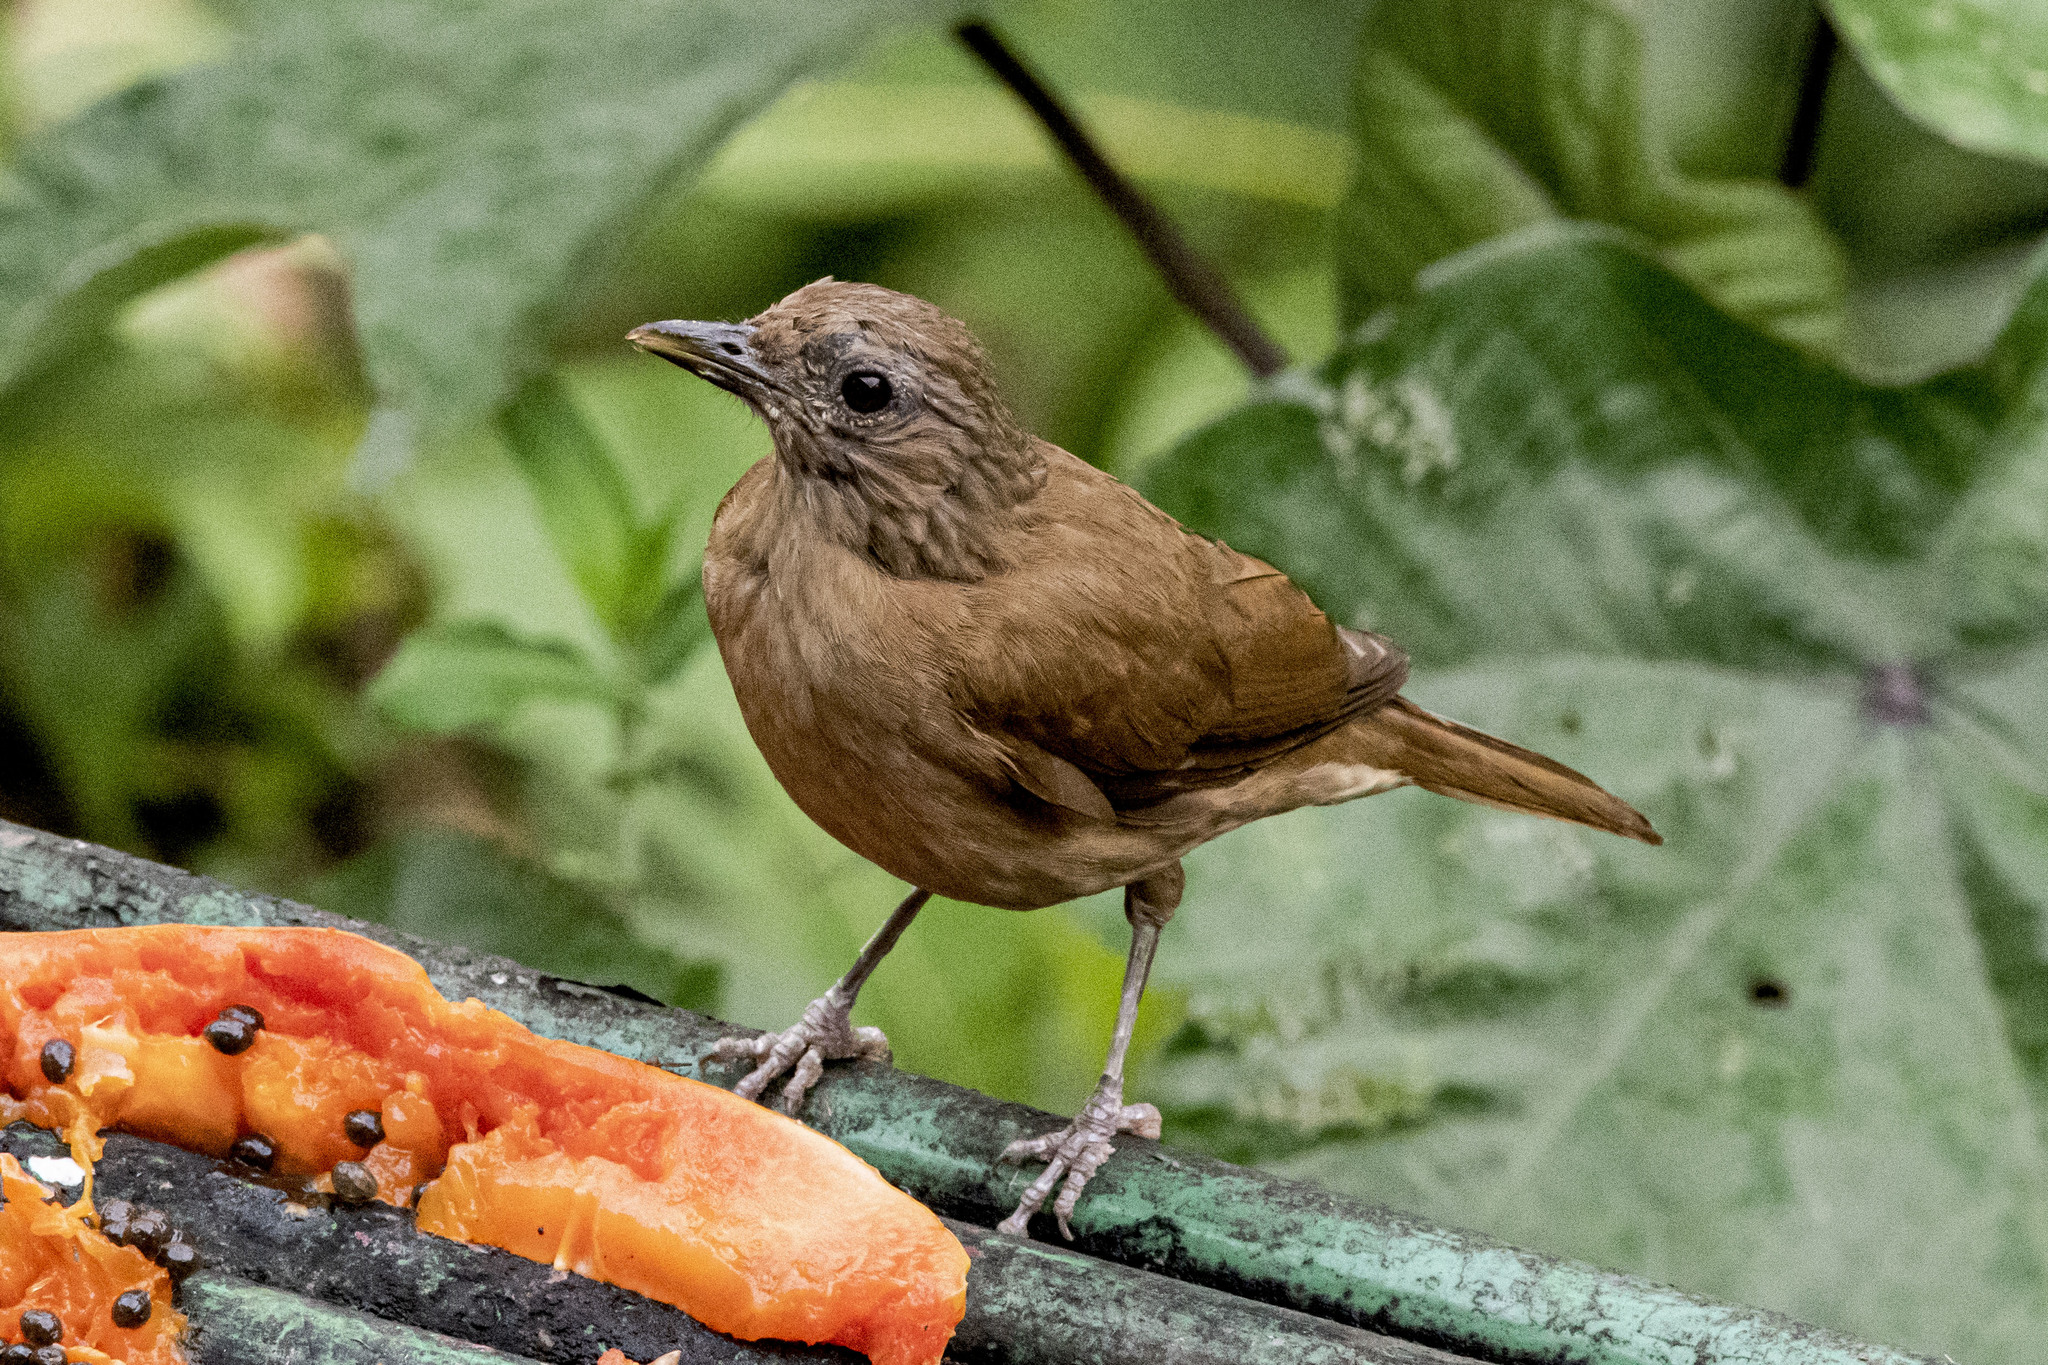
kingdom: Animalia
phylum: Chordata
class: Aves
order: Passeriformes
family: Turdidae
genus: Turdus
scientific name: Turdus fumigatus
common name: Cocoa thrush
